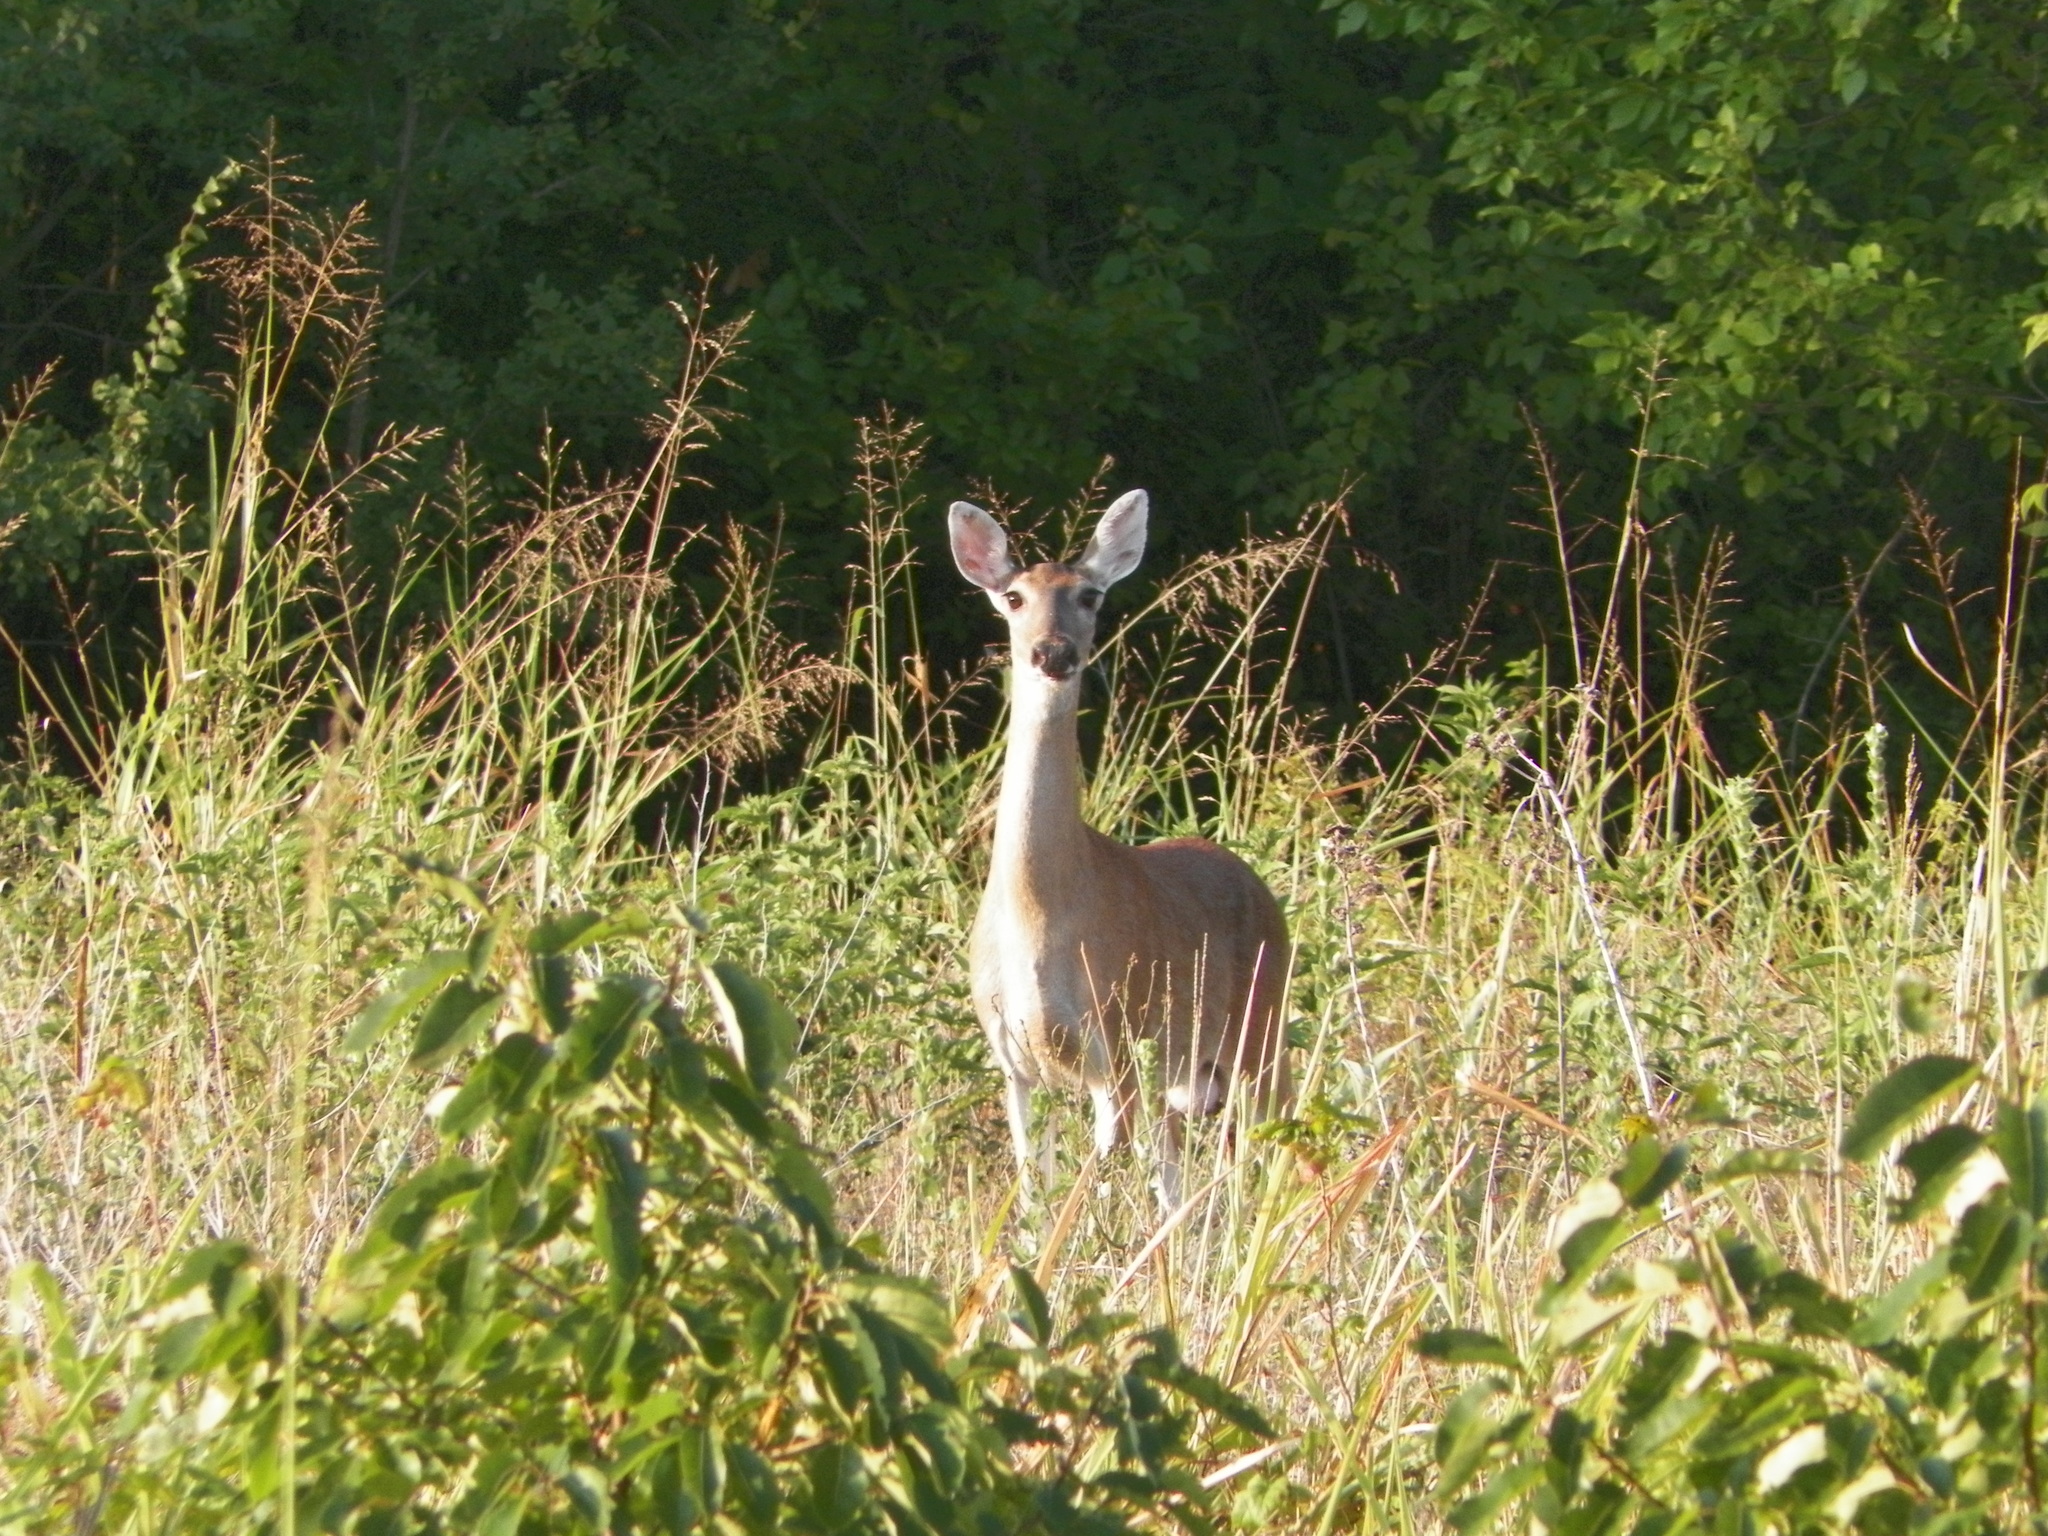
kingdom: Animalia
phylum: Chordata
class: Mammalia
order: Artiodactyla
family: Cervidae
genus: Odocoileus
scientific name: Odocoileus virginianus
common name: White-tailed deer
